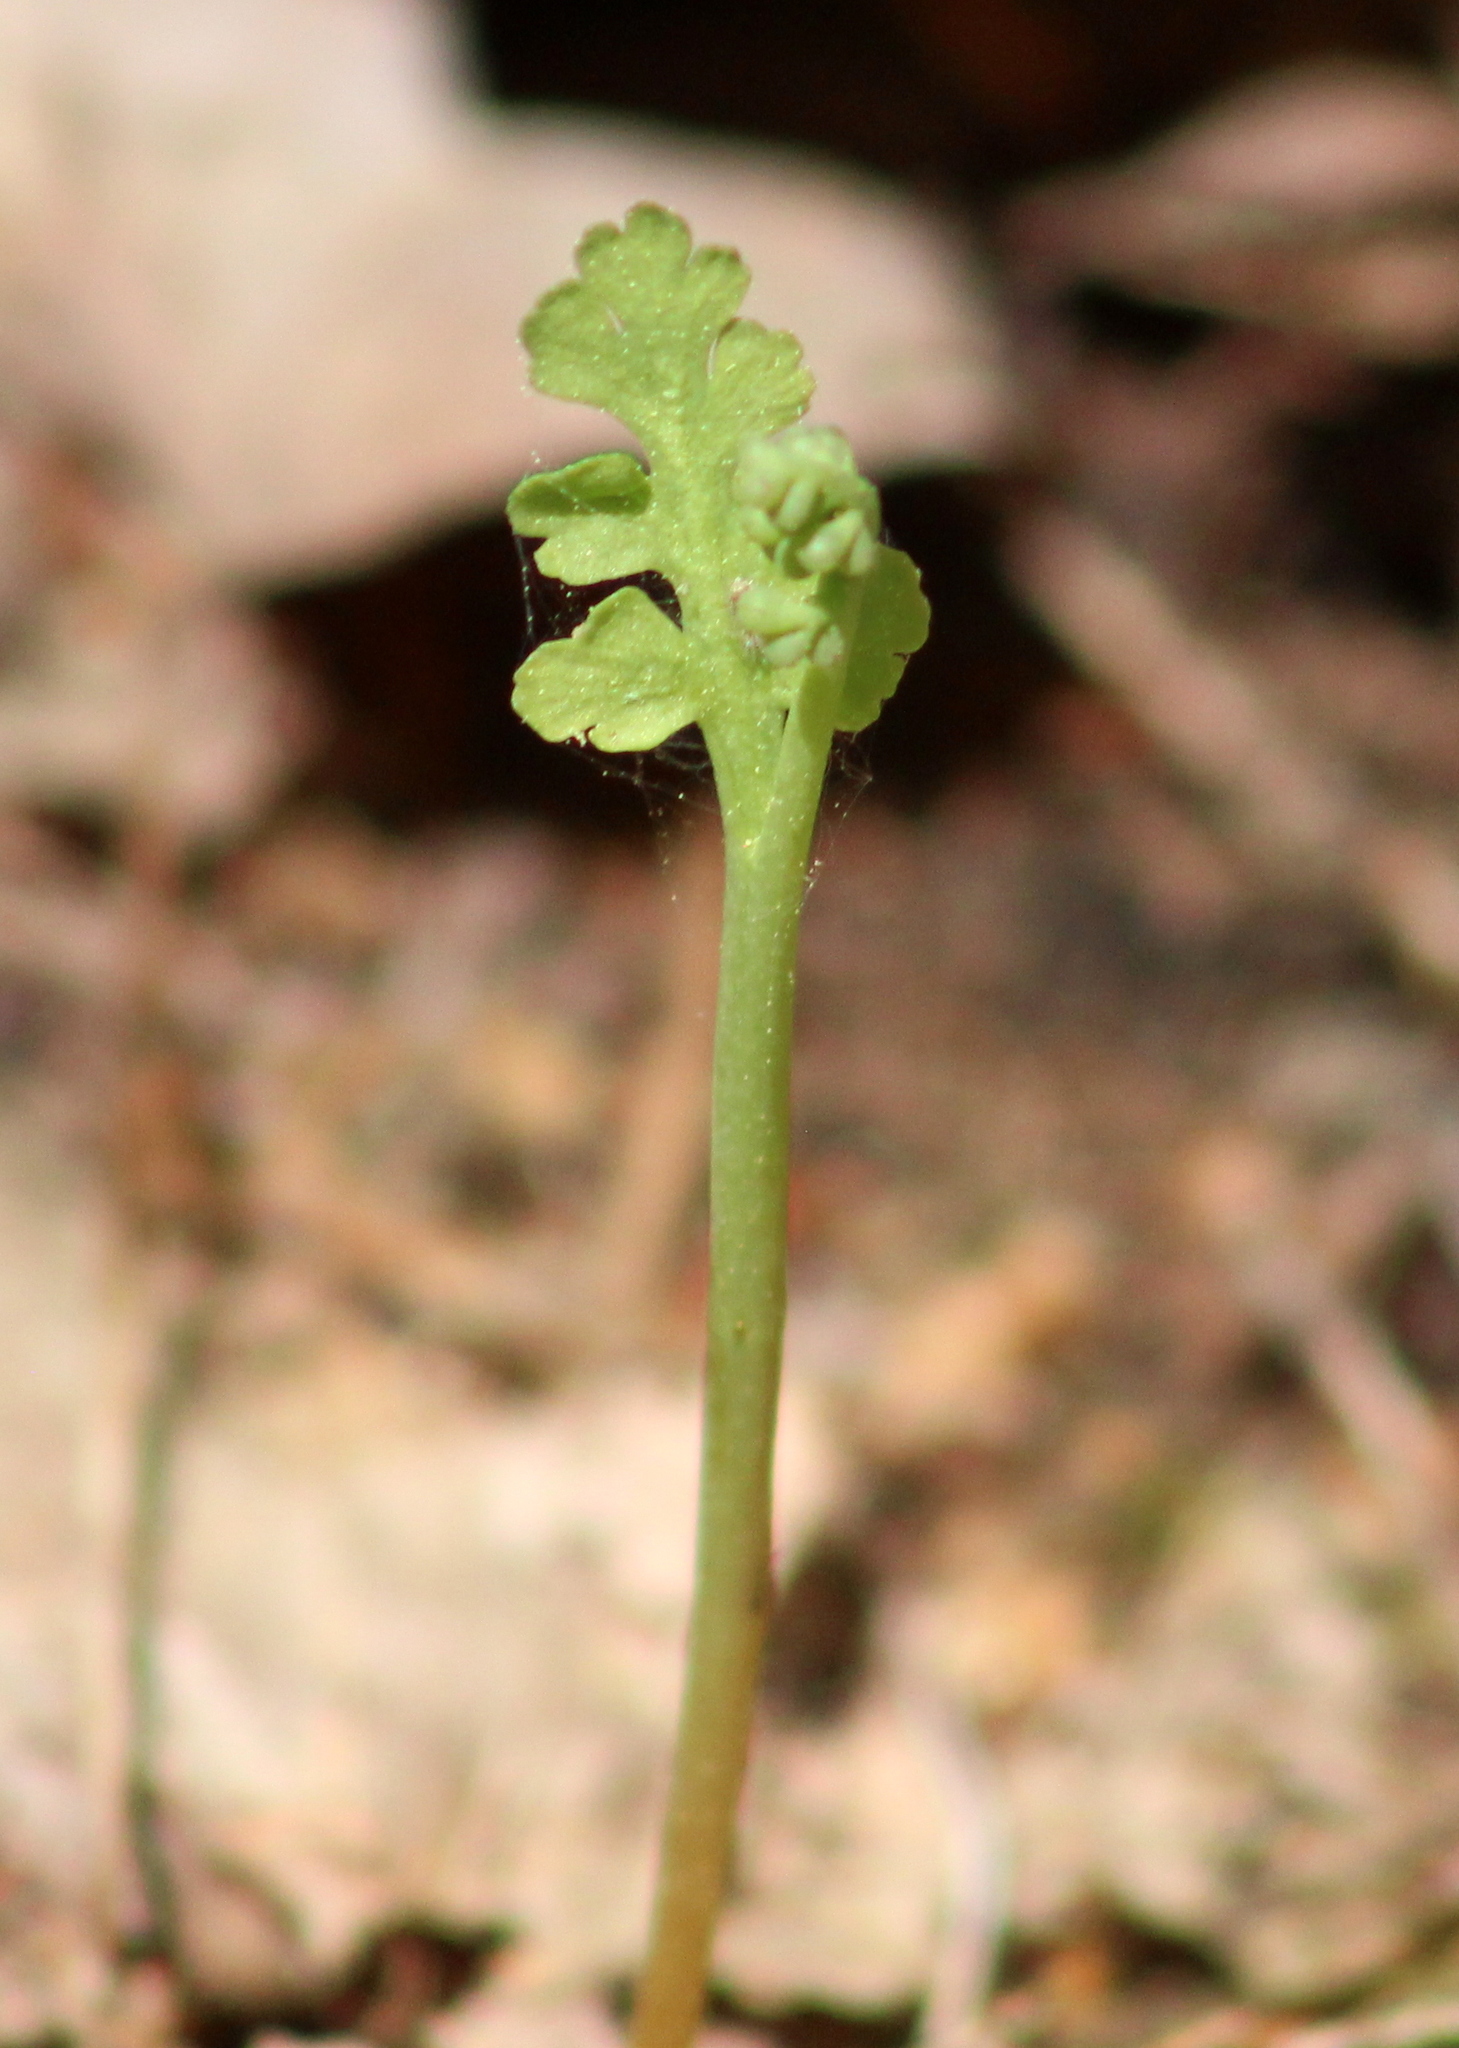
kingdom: Plantae
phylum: Tracheophyta
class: Polypodiopsida
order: Ophioglossales
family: Ophioglossaceae
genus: Botrychium
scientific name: Botrychium matricariifolium
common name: Branched moonwort
